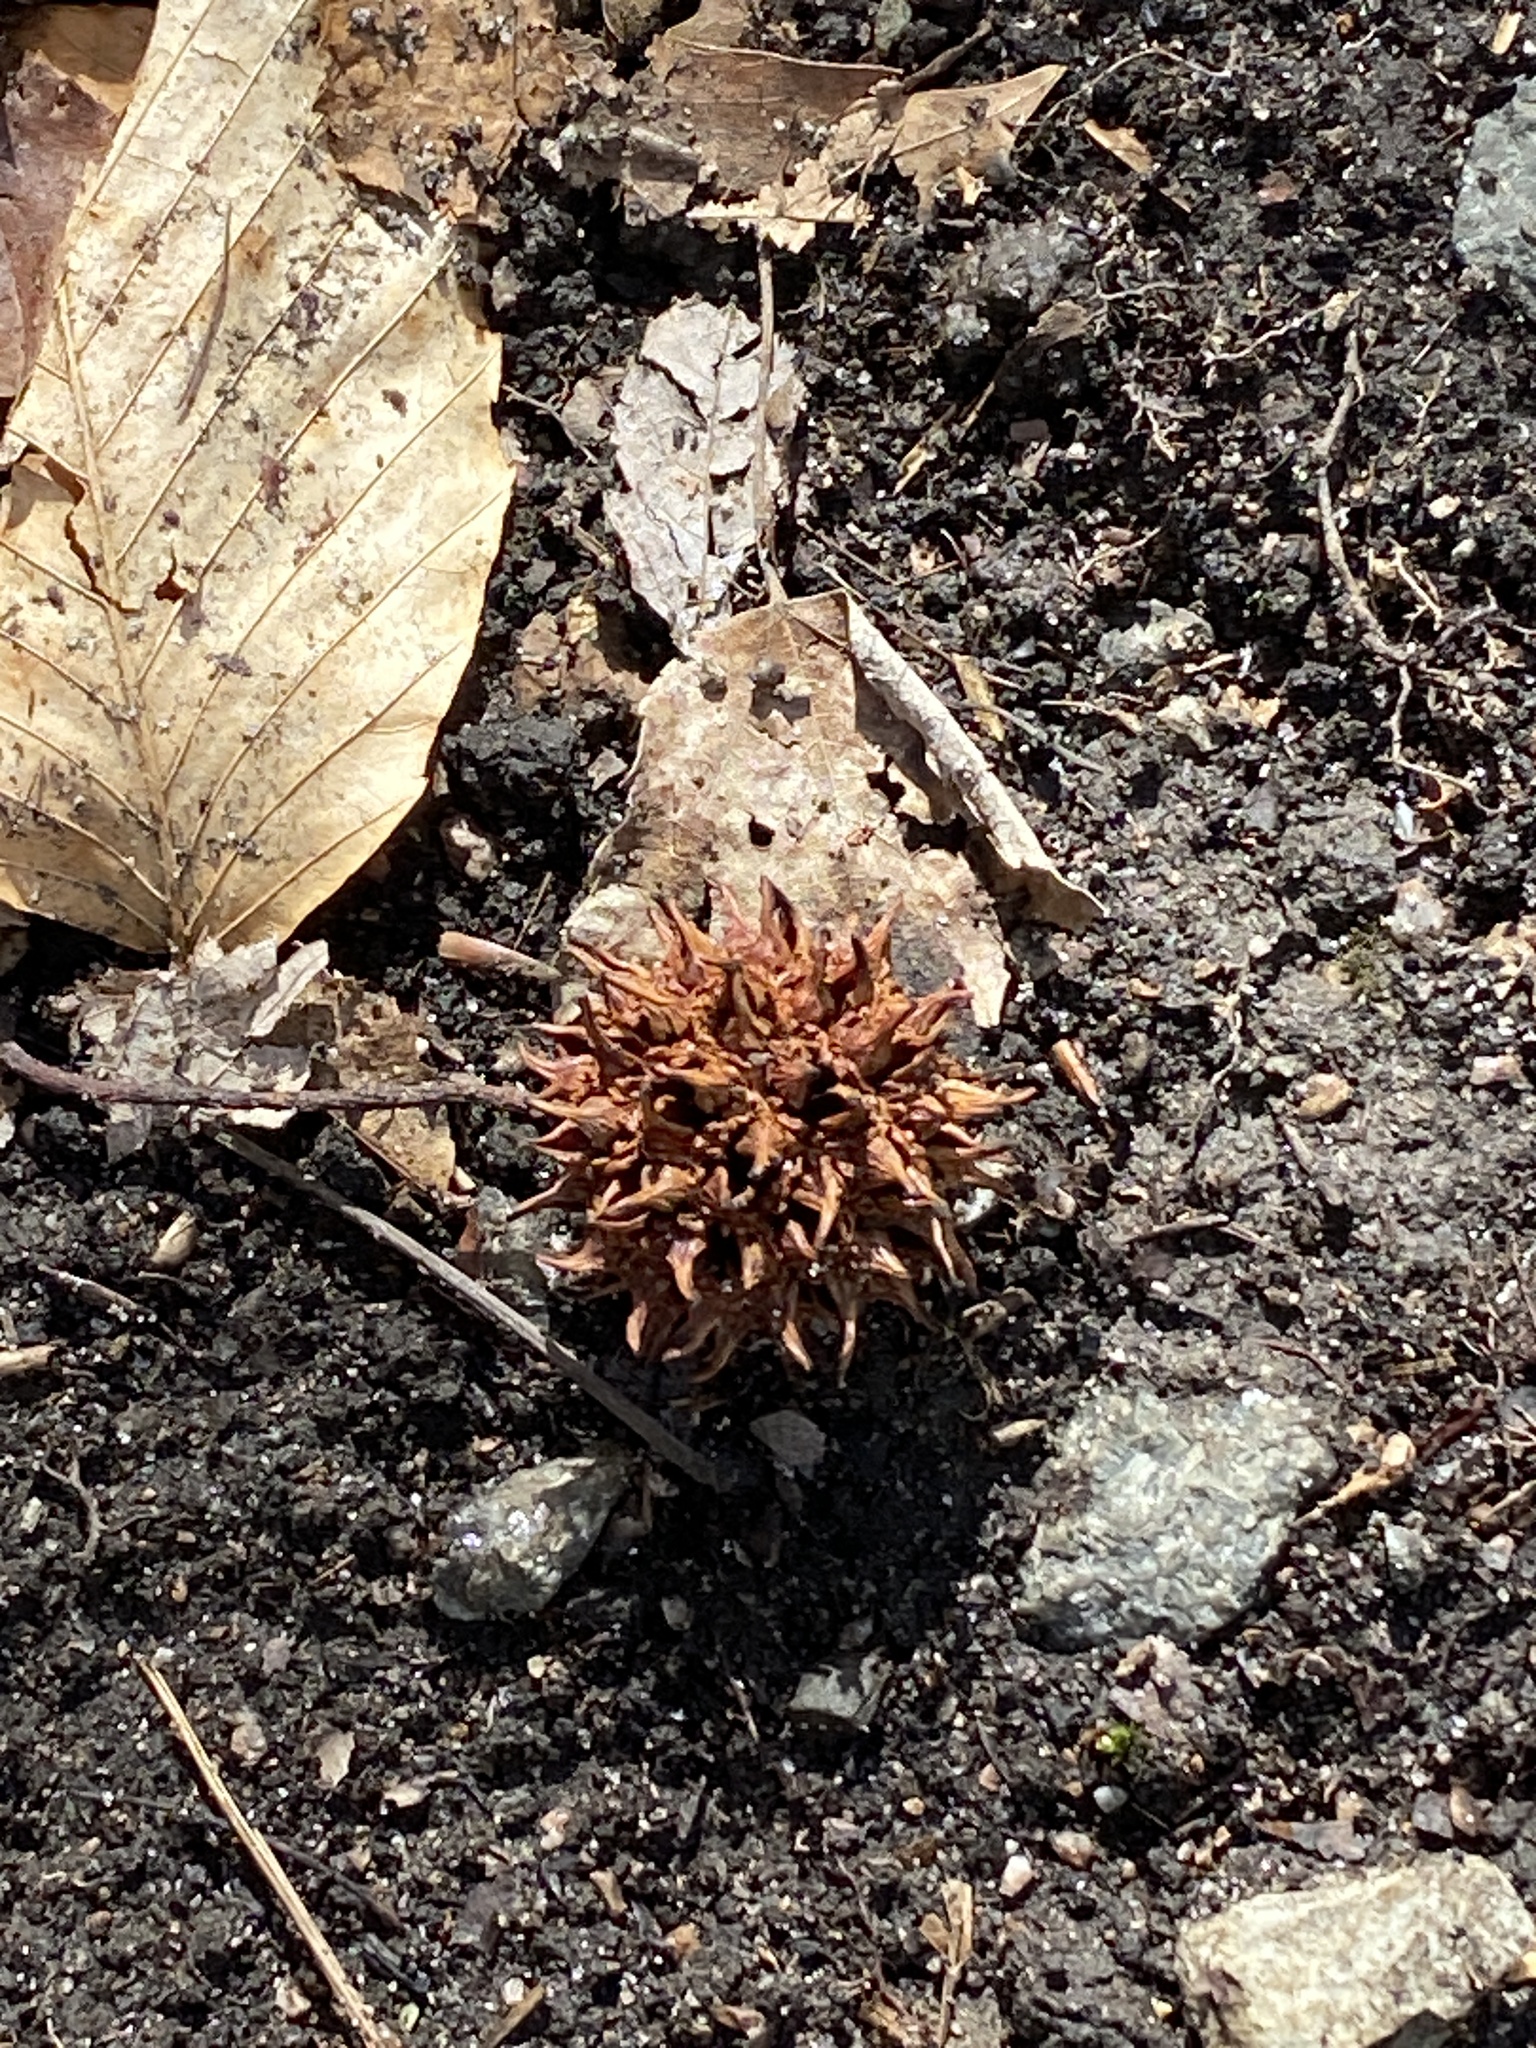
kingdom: Plantae
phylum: Tracheophyta
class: Magnoliopsida
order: Saxifragales
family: Altingiaceae
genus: Liquidambar
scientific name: Liquidambar styraciflua
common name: Sweet gum
